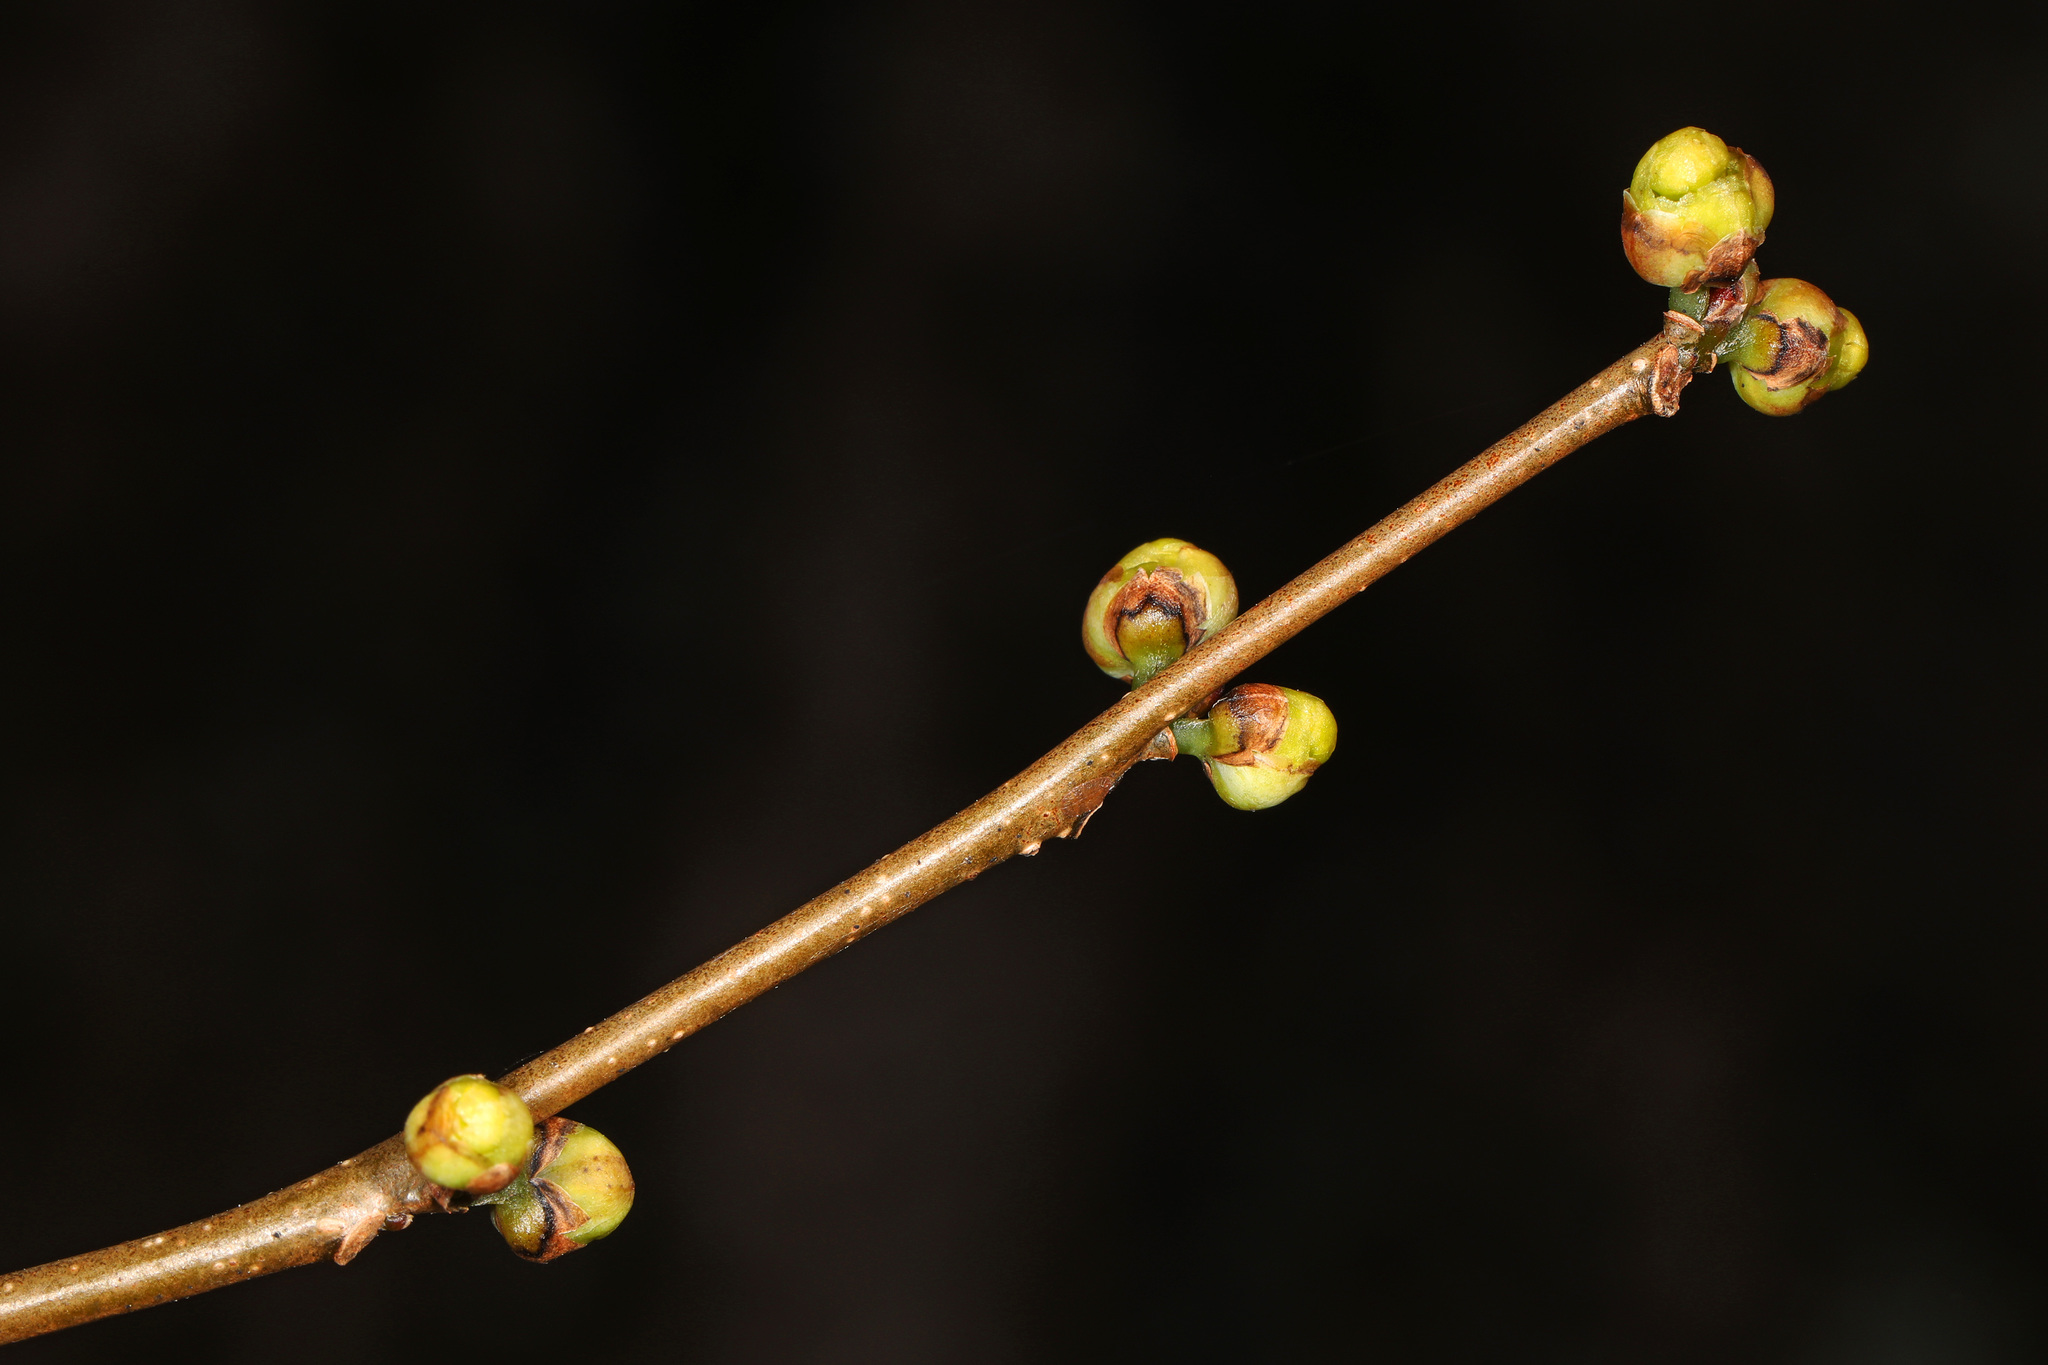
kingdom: Plantae
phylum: Tracheophyta
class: Magnoliopsida
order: Laurales
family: Lauraceae
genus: Lindera
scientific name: Lindera benzoin
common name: Spicebush
